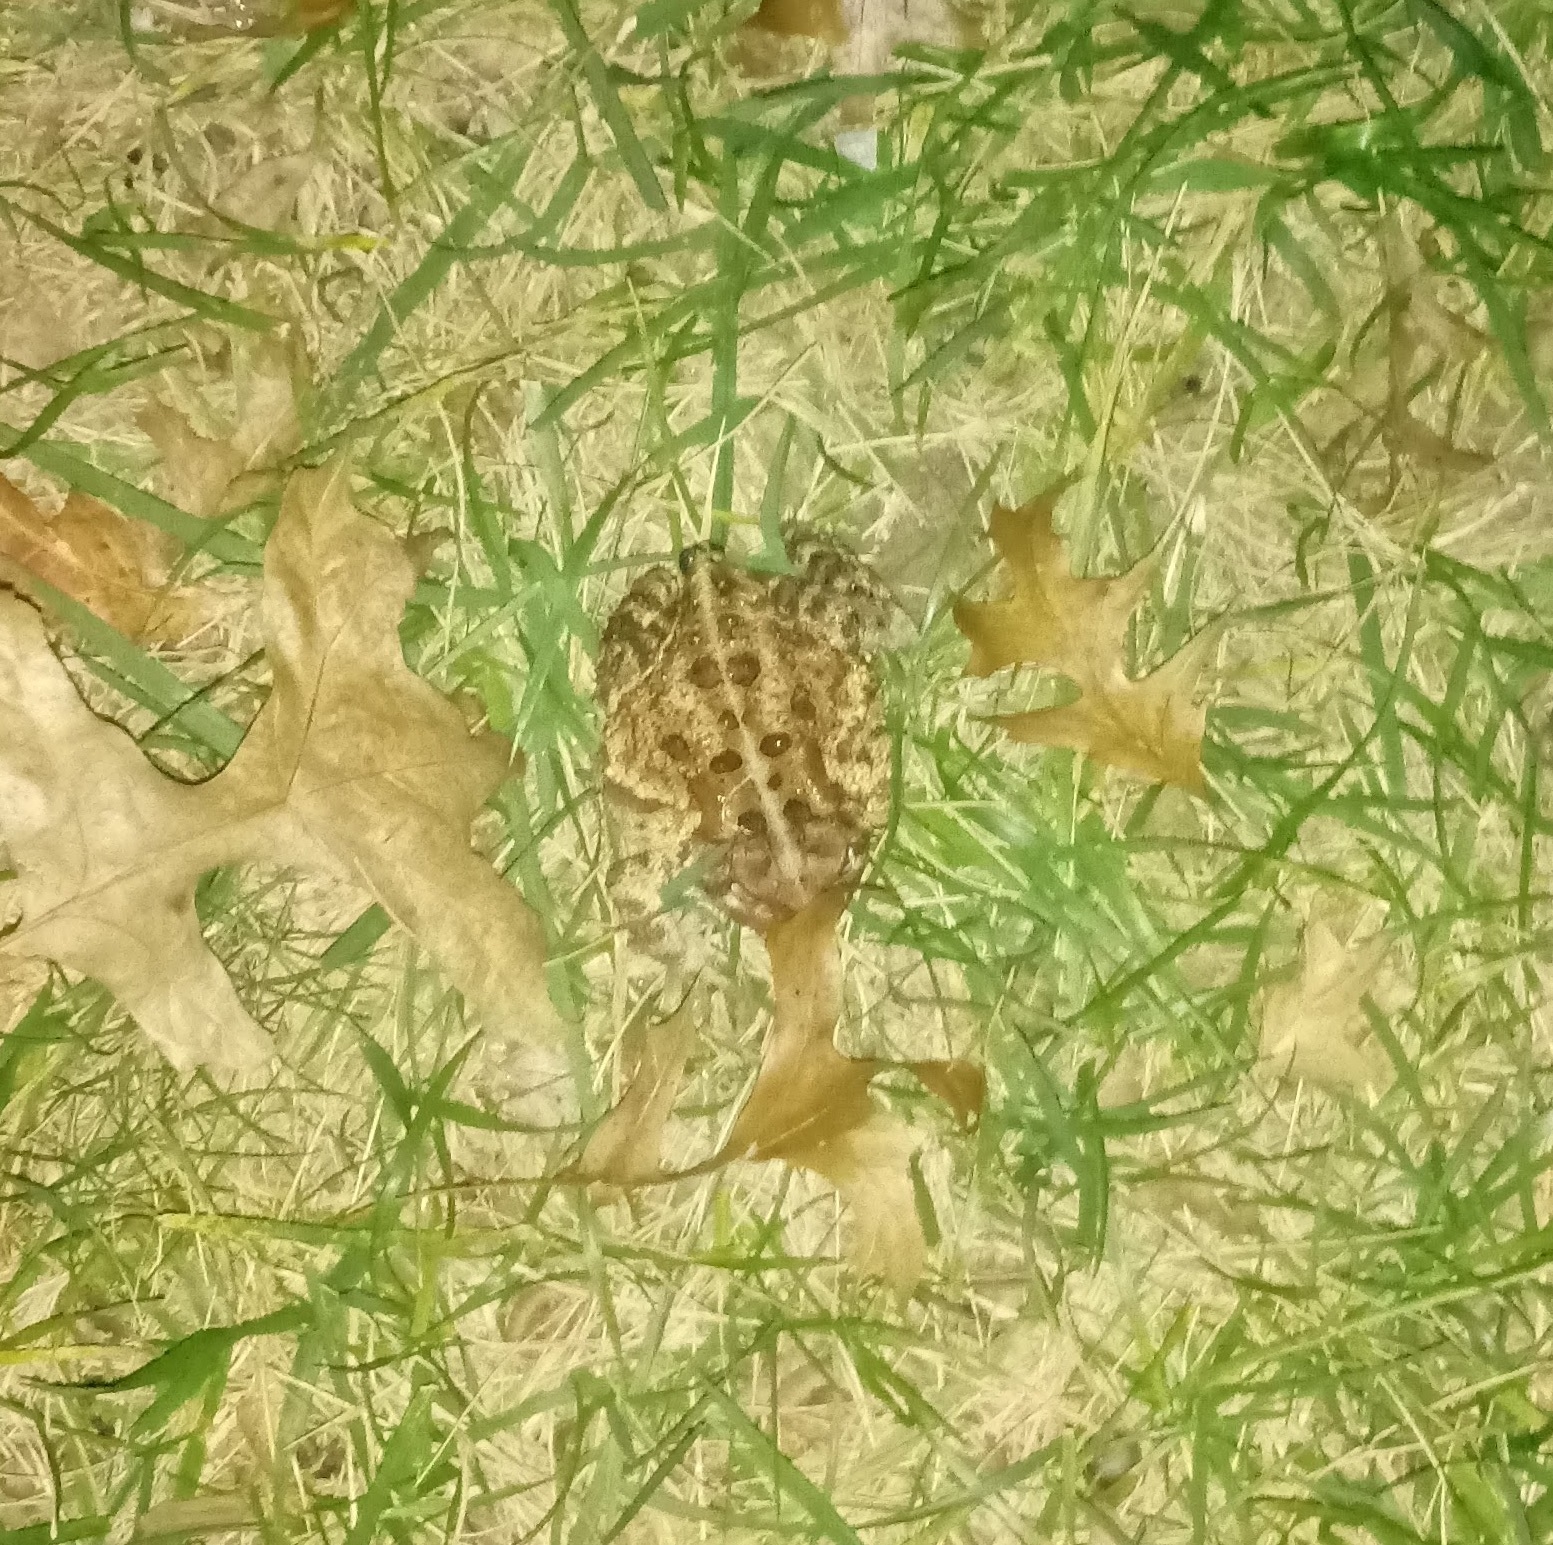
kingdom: Animalia
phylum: Chordata
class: Amphibia
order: Anura
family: Bufonidae
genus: Anaxyrus
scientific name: Anaxyrus americanus
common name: American toad
